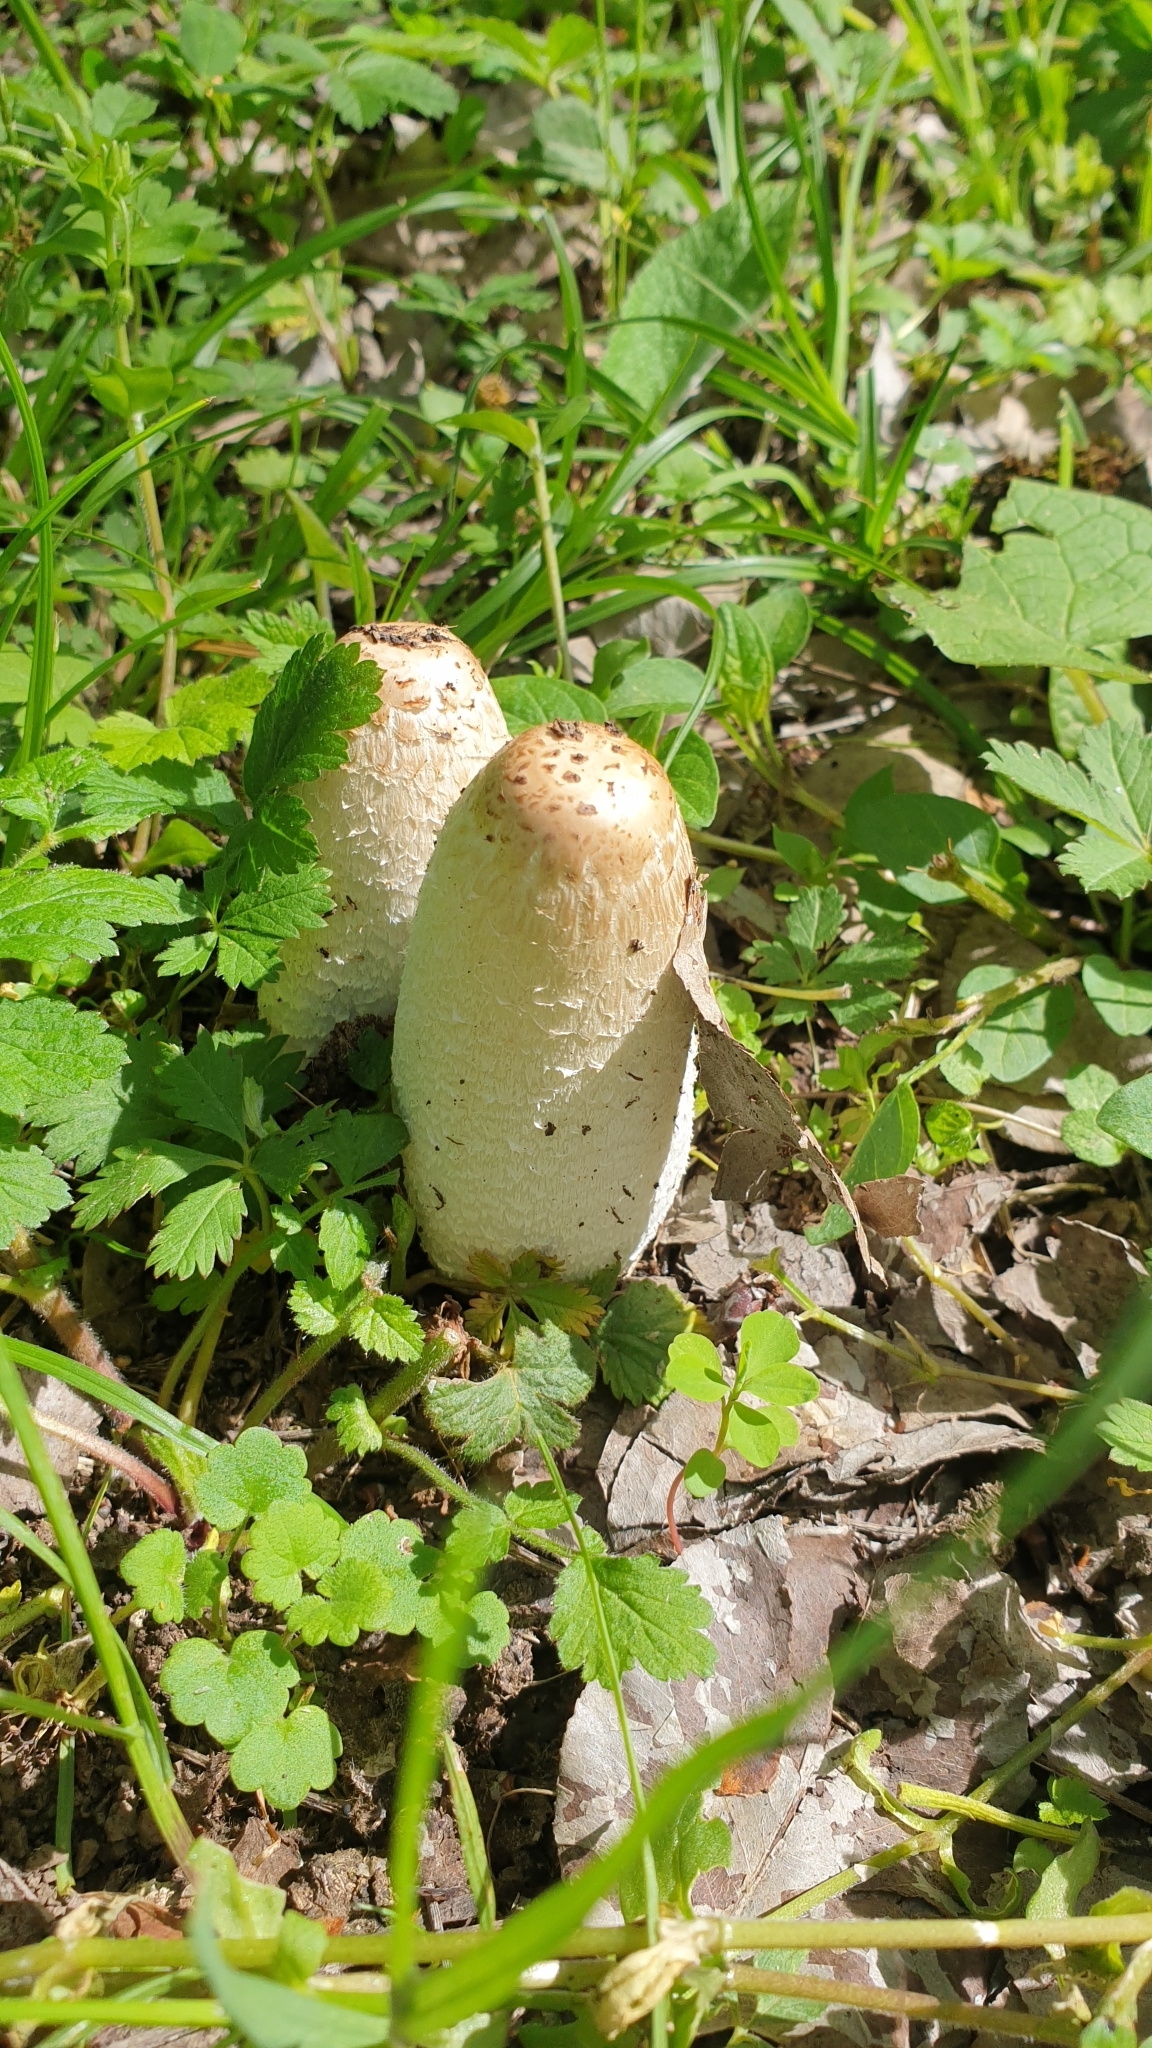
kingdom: Fungi
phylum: Basidiomycota
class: Agaricomycetes
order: Agaricales
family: Agaricaceae
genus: Coprinus
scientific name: Coprinus comatus
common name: Lawyer's wig
